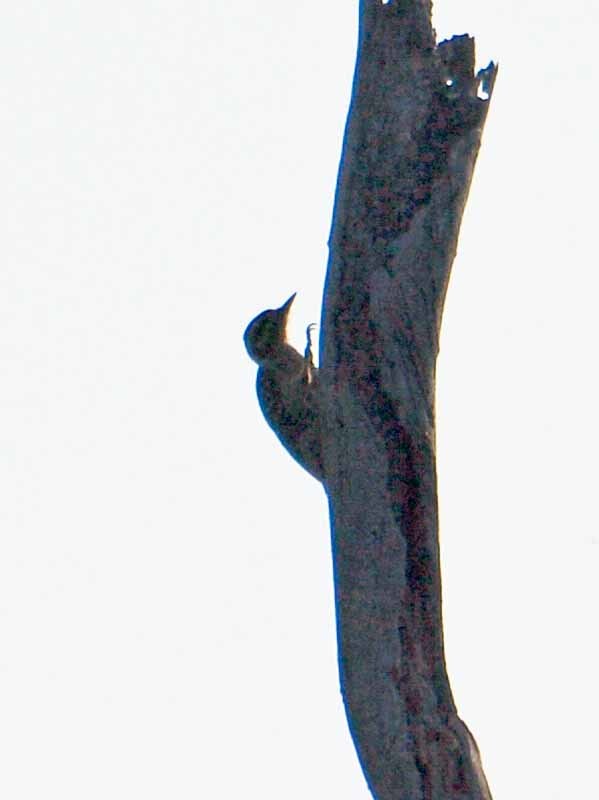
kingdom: Animalia
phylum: Chordata
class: Aves
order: Piciformes
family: Picidae
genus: Dryobates
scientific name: Dryobates scalaris
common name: Ladder-backed woodpecker
